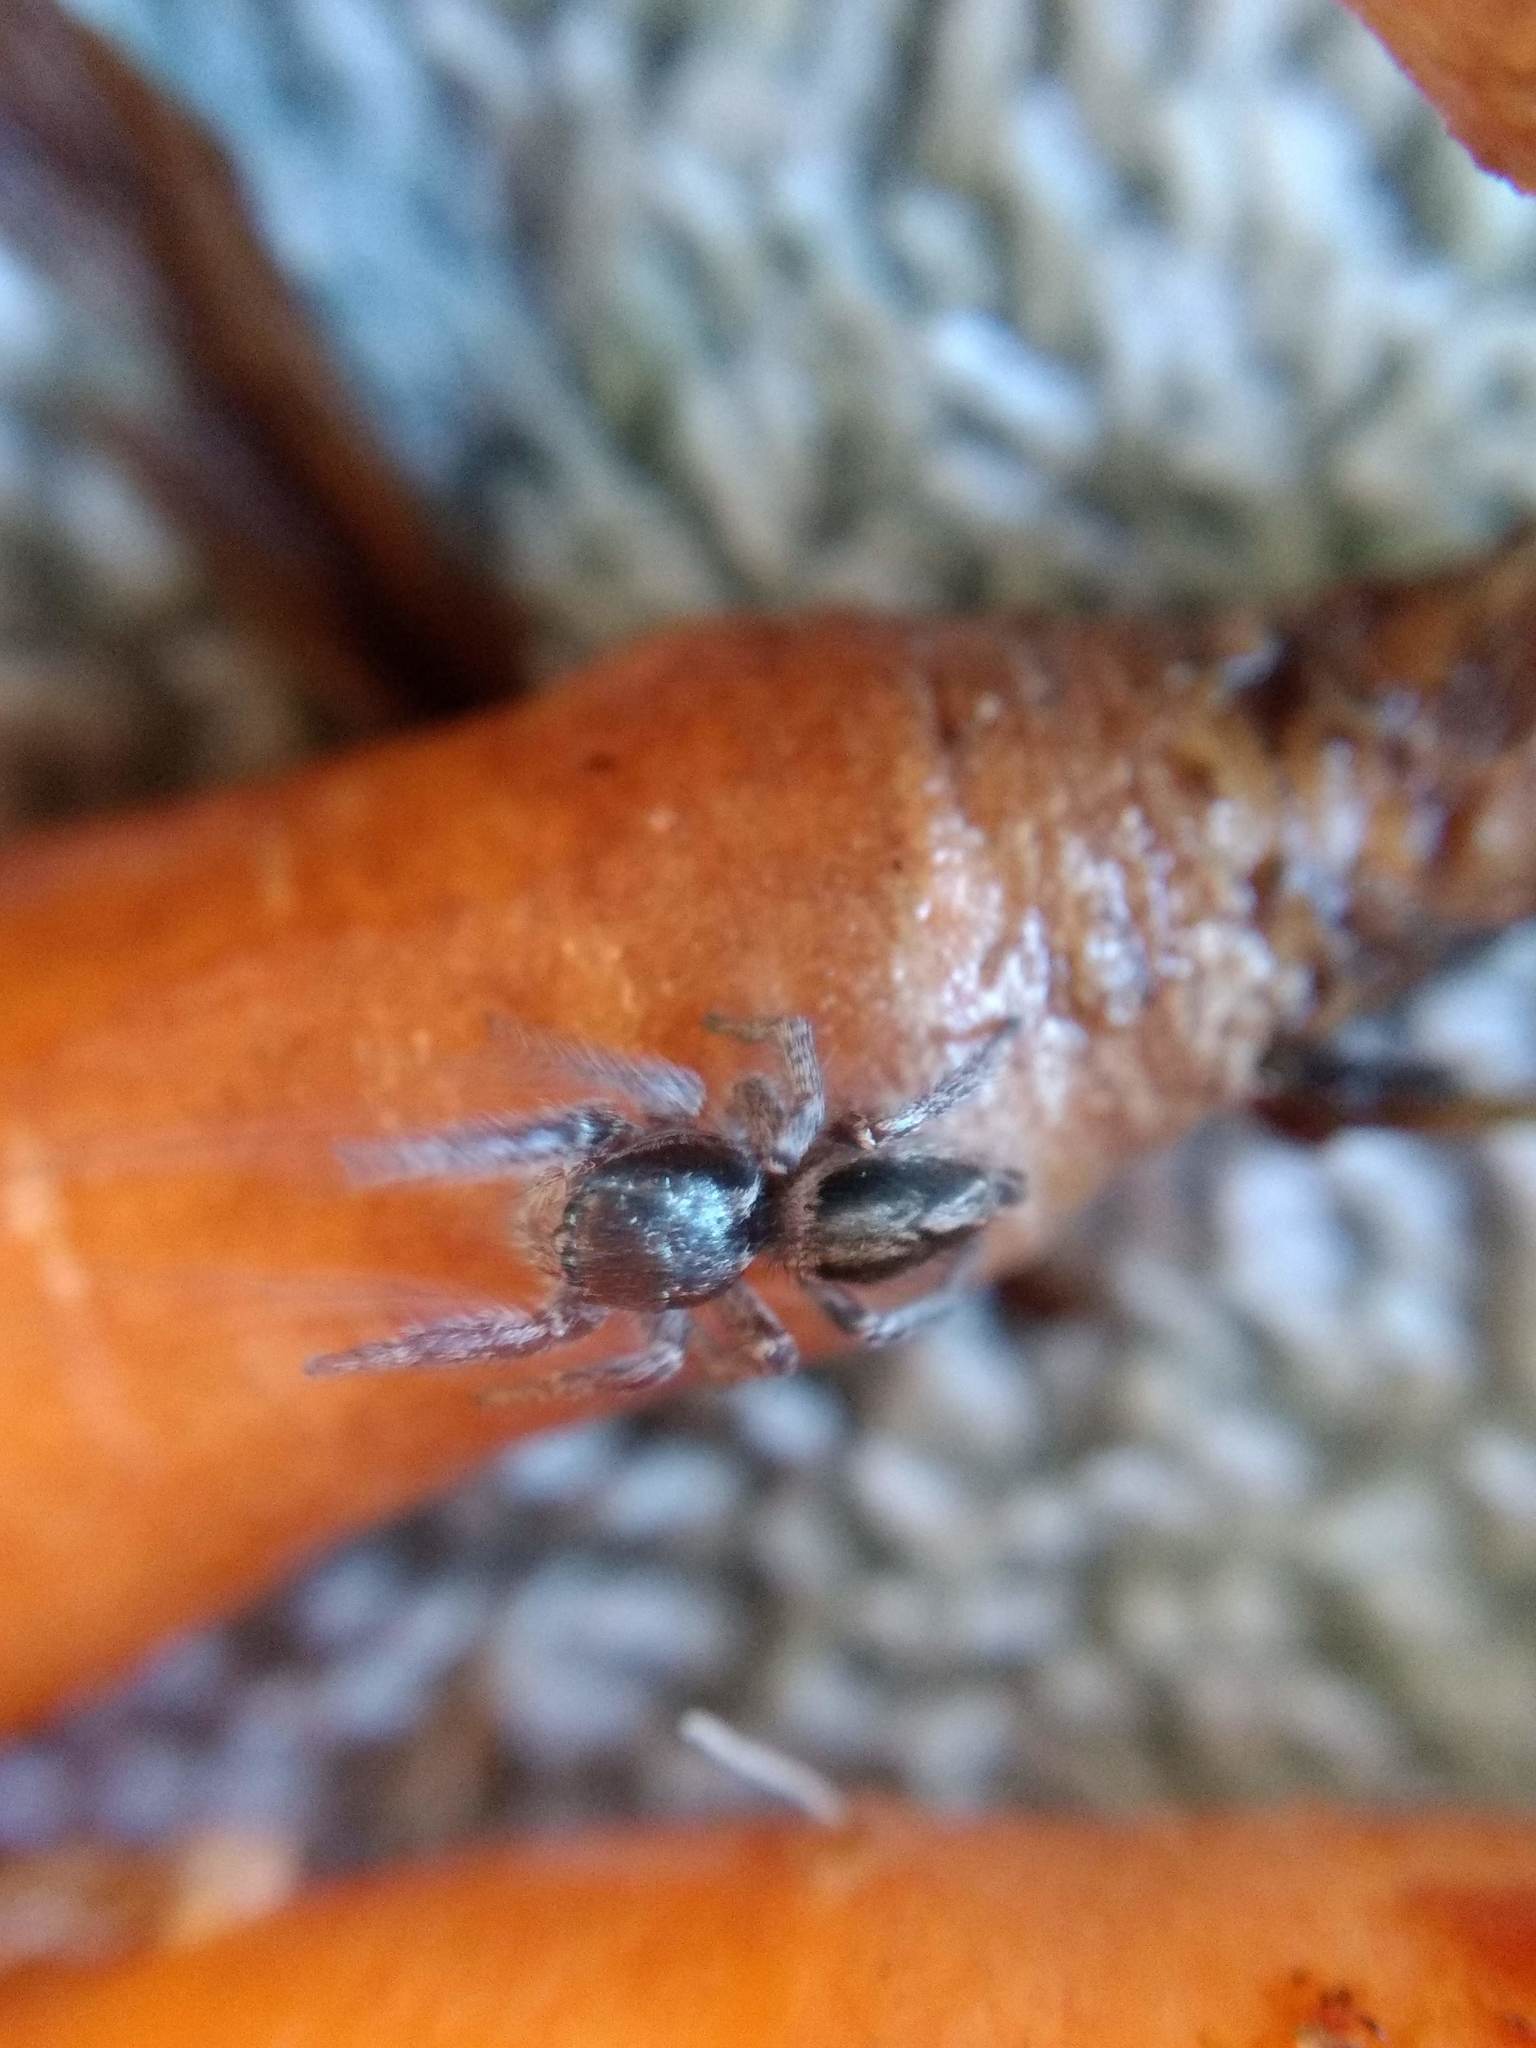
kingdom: Animalia
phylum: Arthropoda
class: Arachnida
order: Araneae
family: Salticidae
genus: Habronattus
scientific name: Habronattus pyrrithrix
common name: Jumping spider
